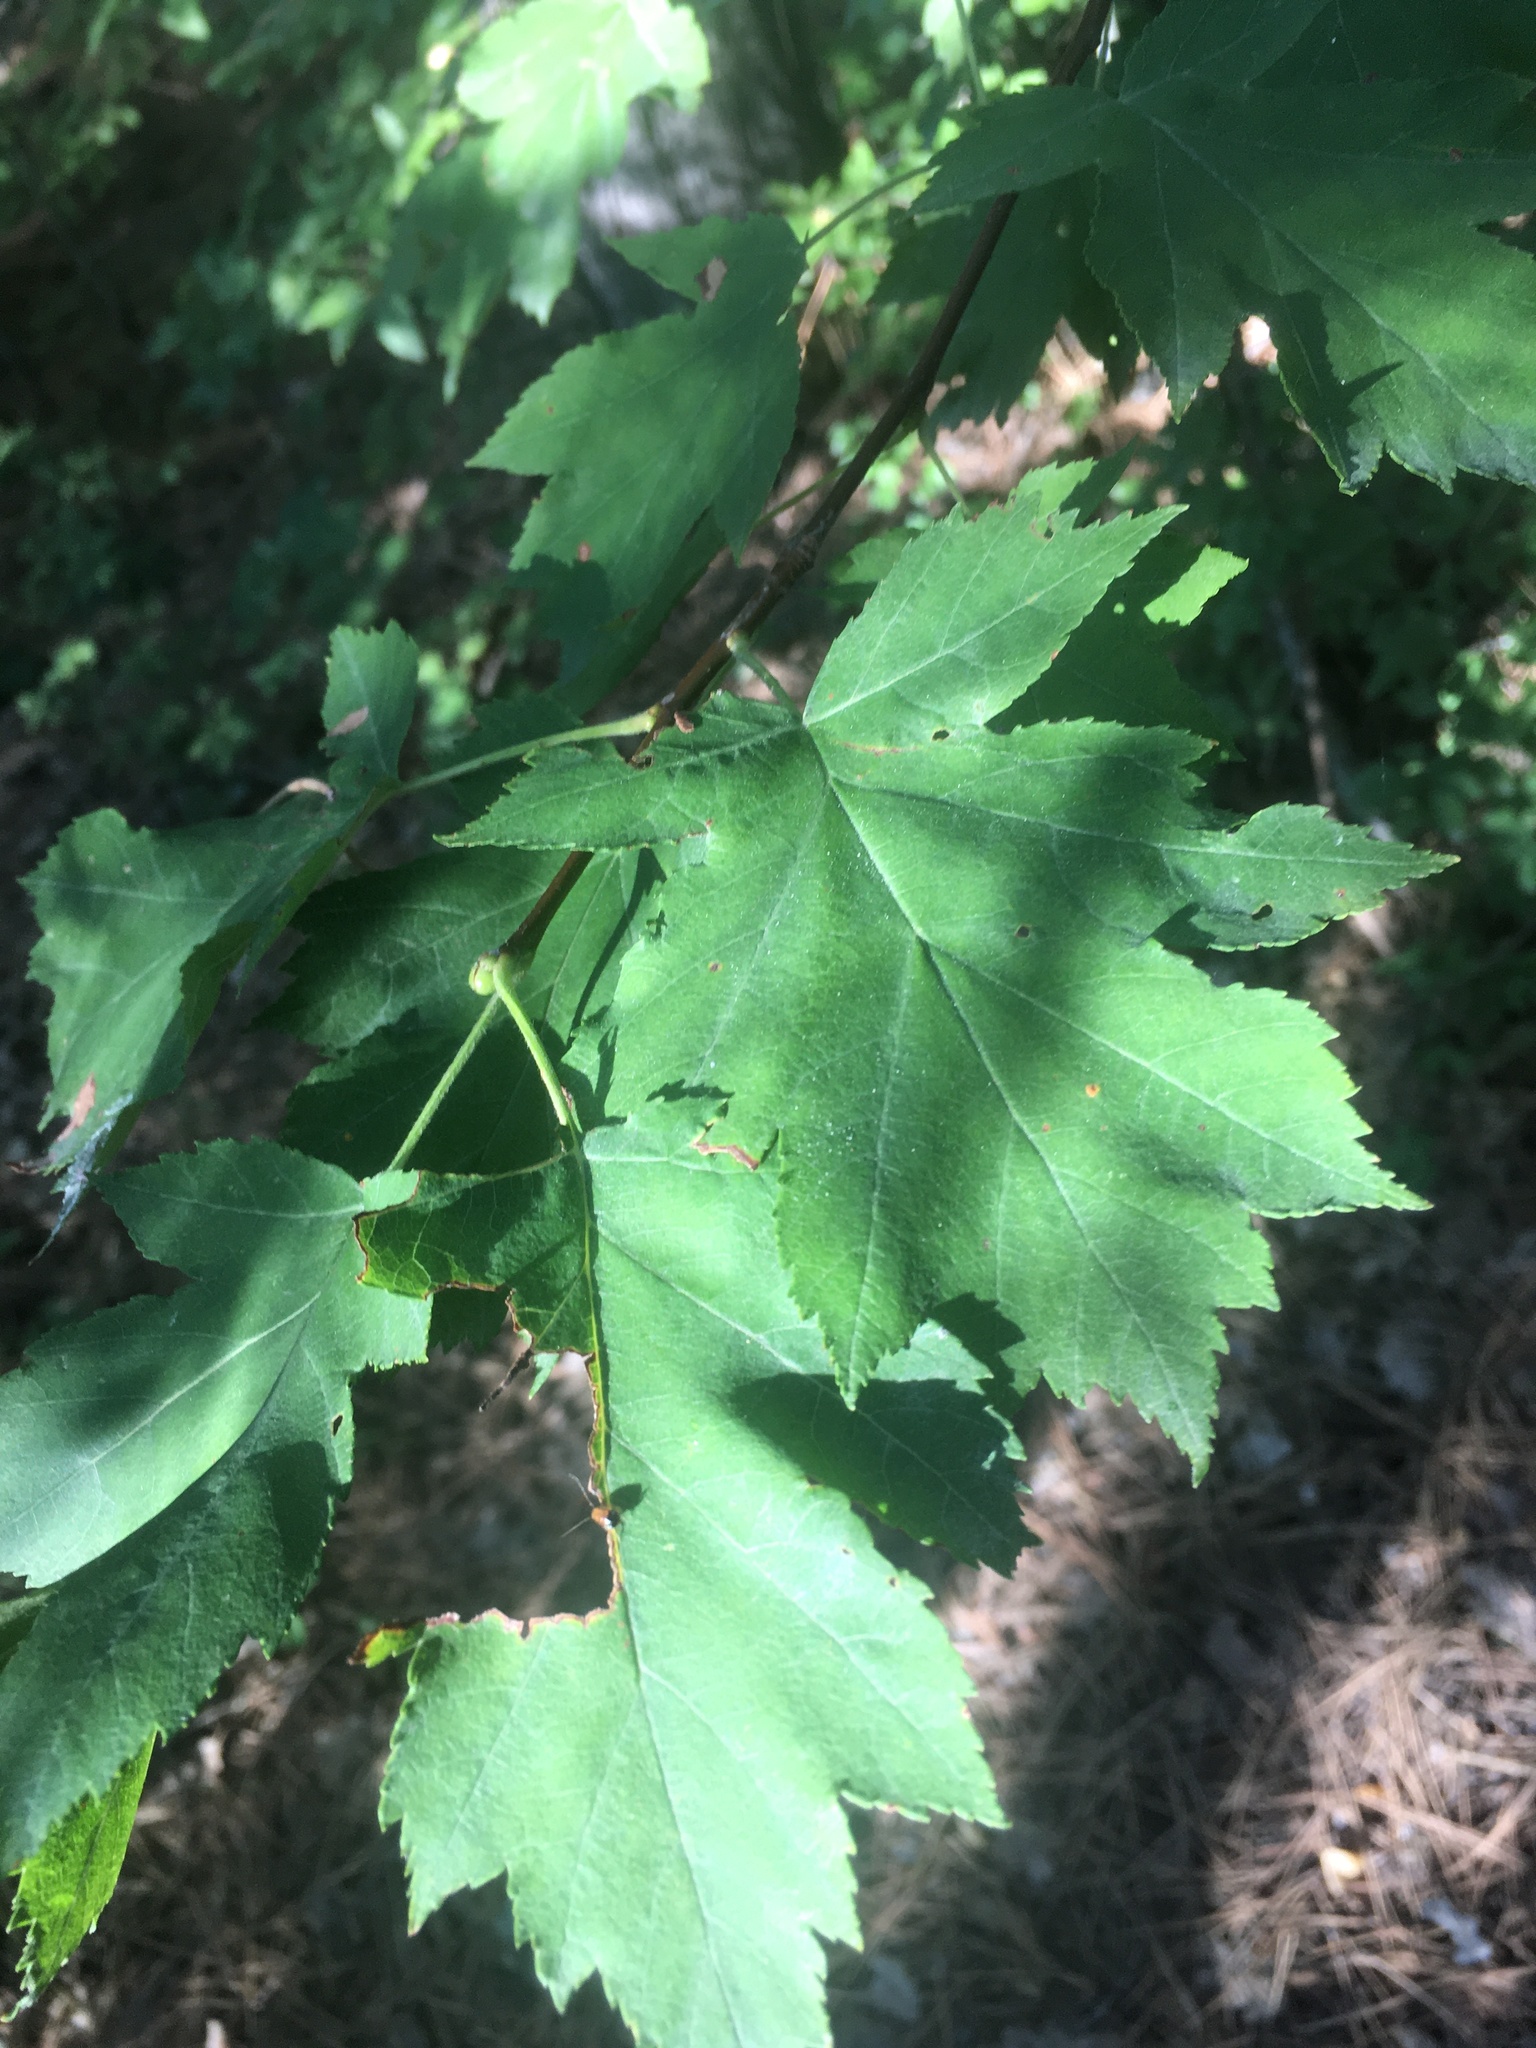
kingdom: Plantae
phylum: Tracheophyta
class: Magnoliopsida
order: Rosales
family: Rosaceae
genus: Torminalis
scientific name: Torminalis glaberrima
